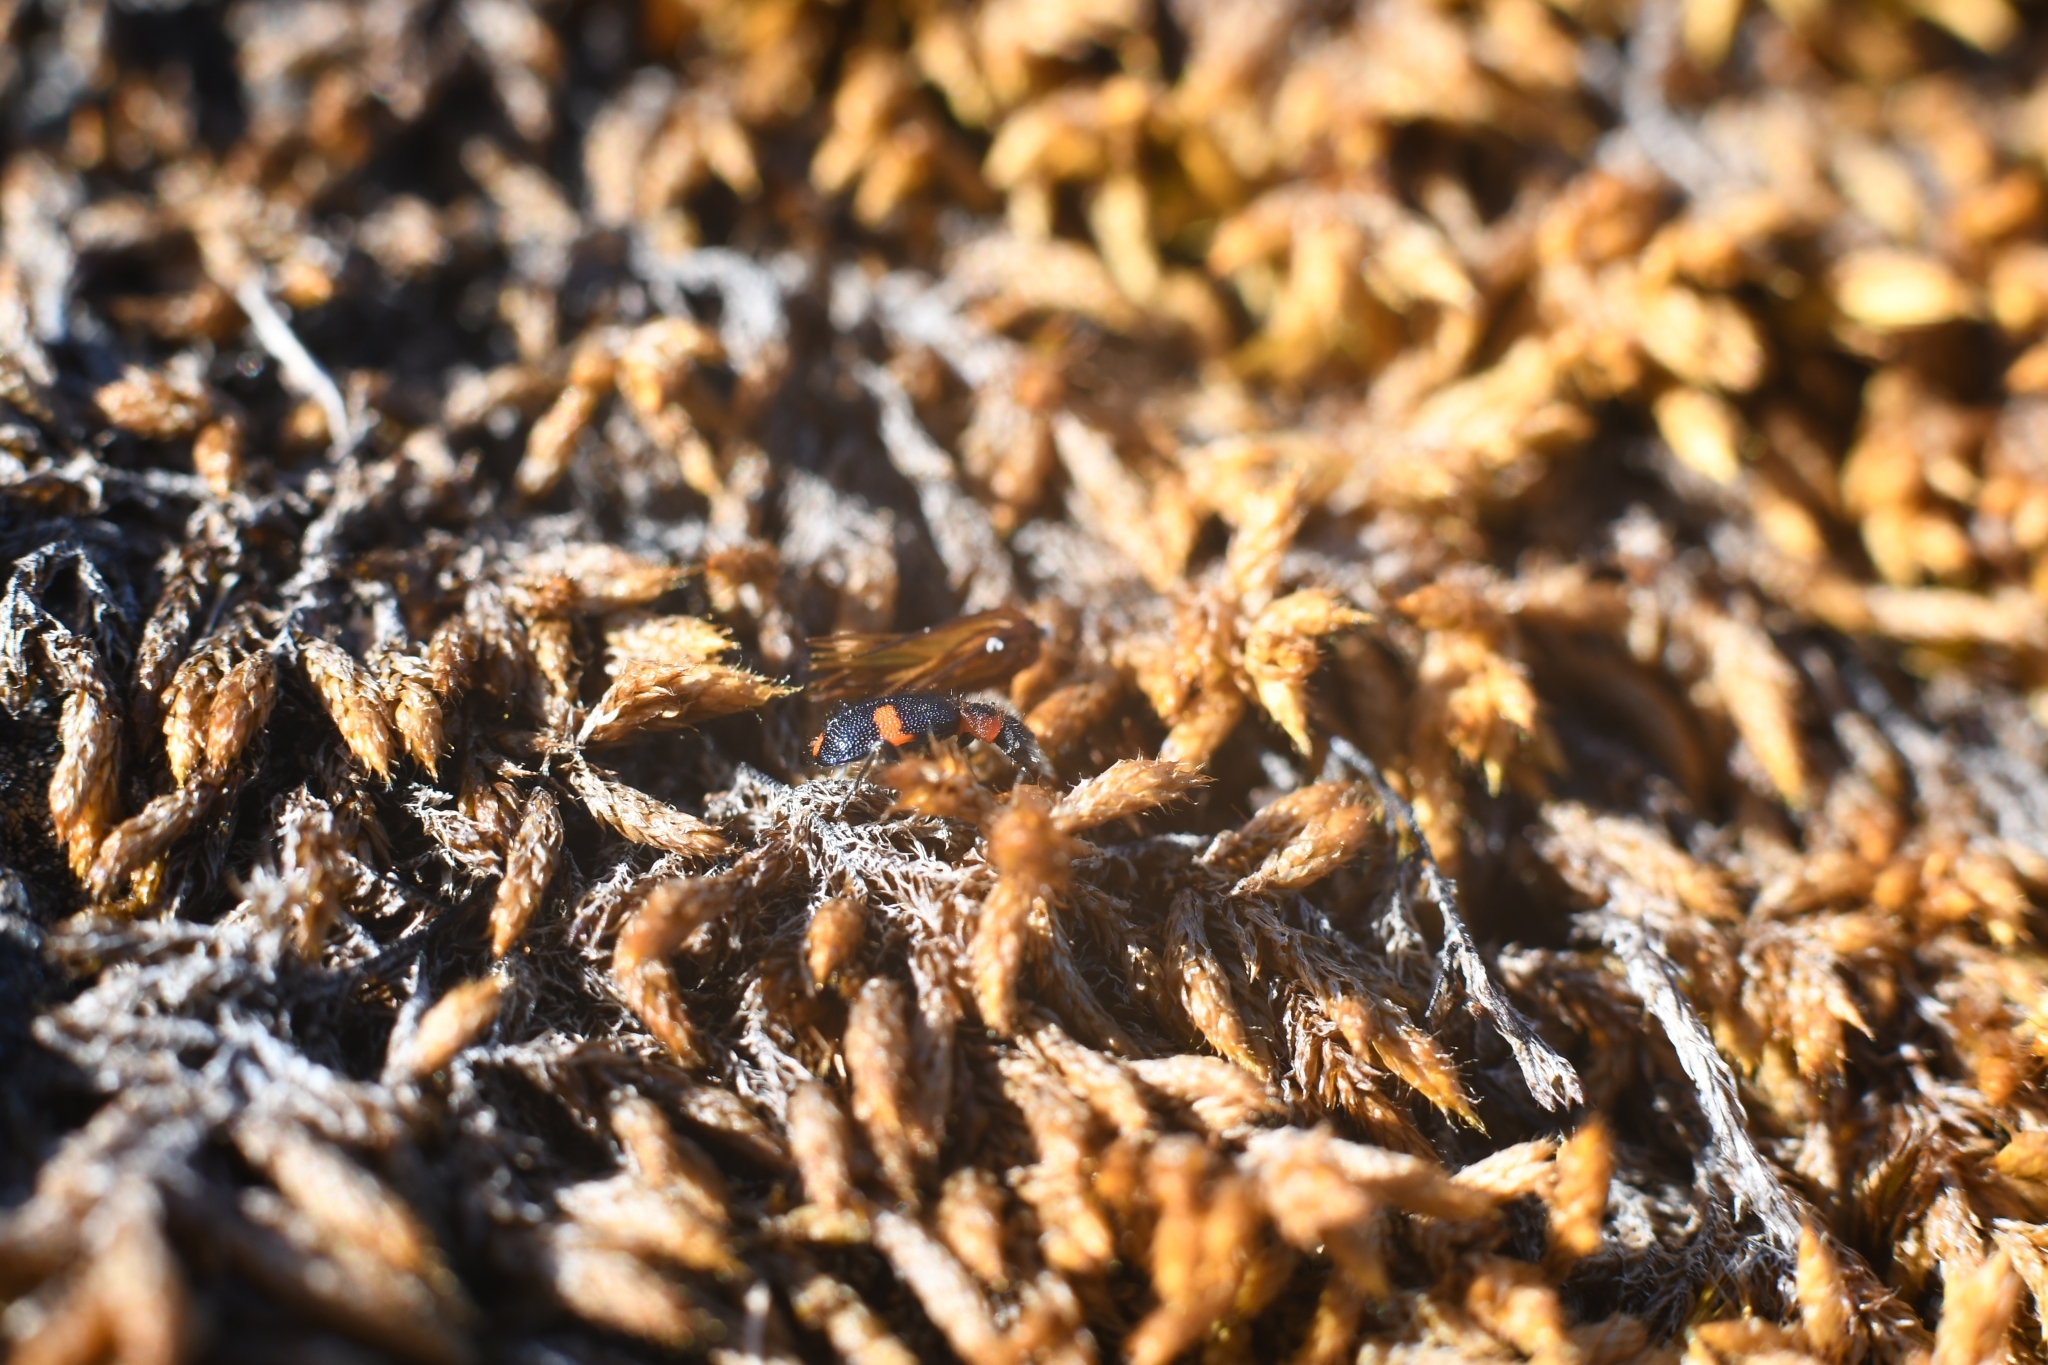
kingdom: Animalia
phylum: Arthropoda
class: Insecta
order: Coleoptera
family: Melyridae
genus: Dicranolaius
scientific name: Dicranolaius bellulus
